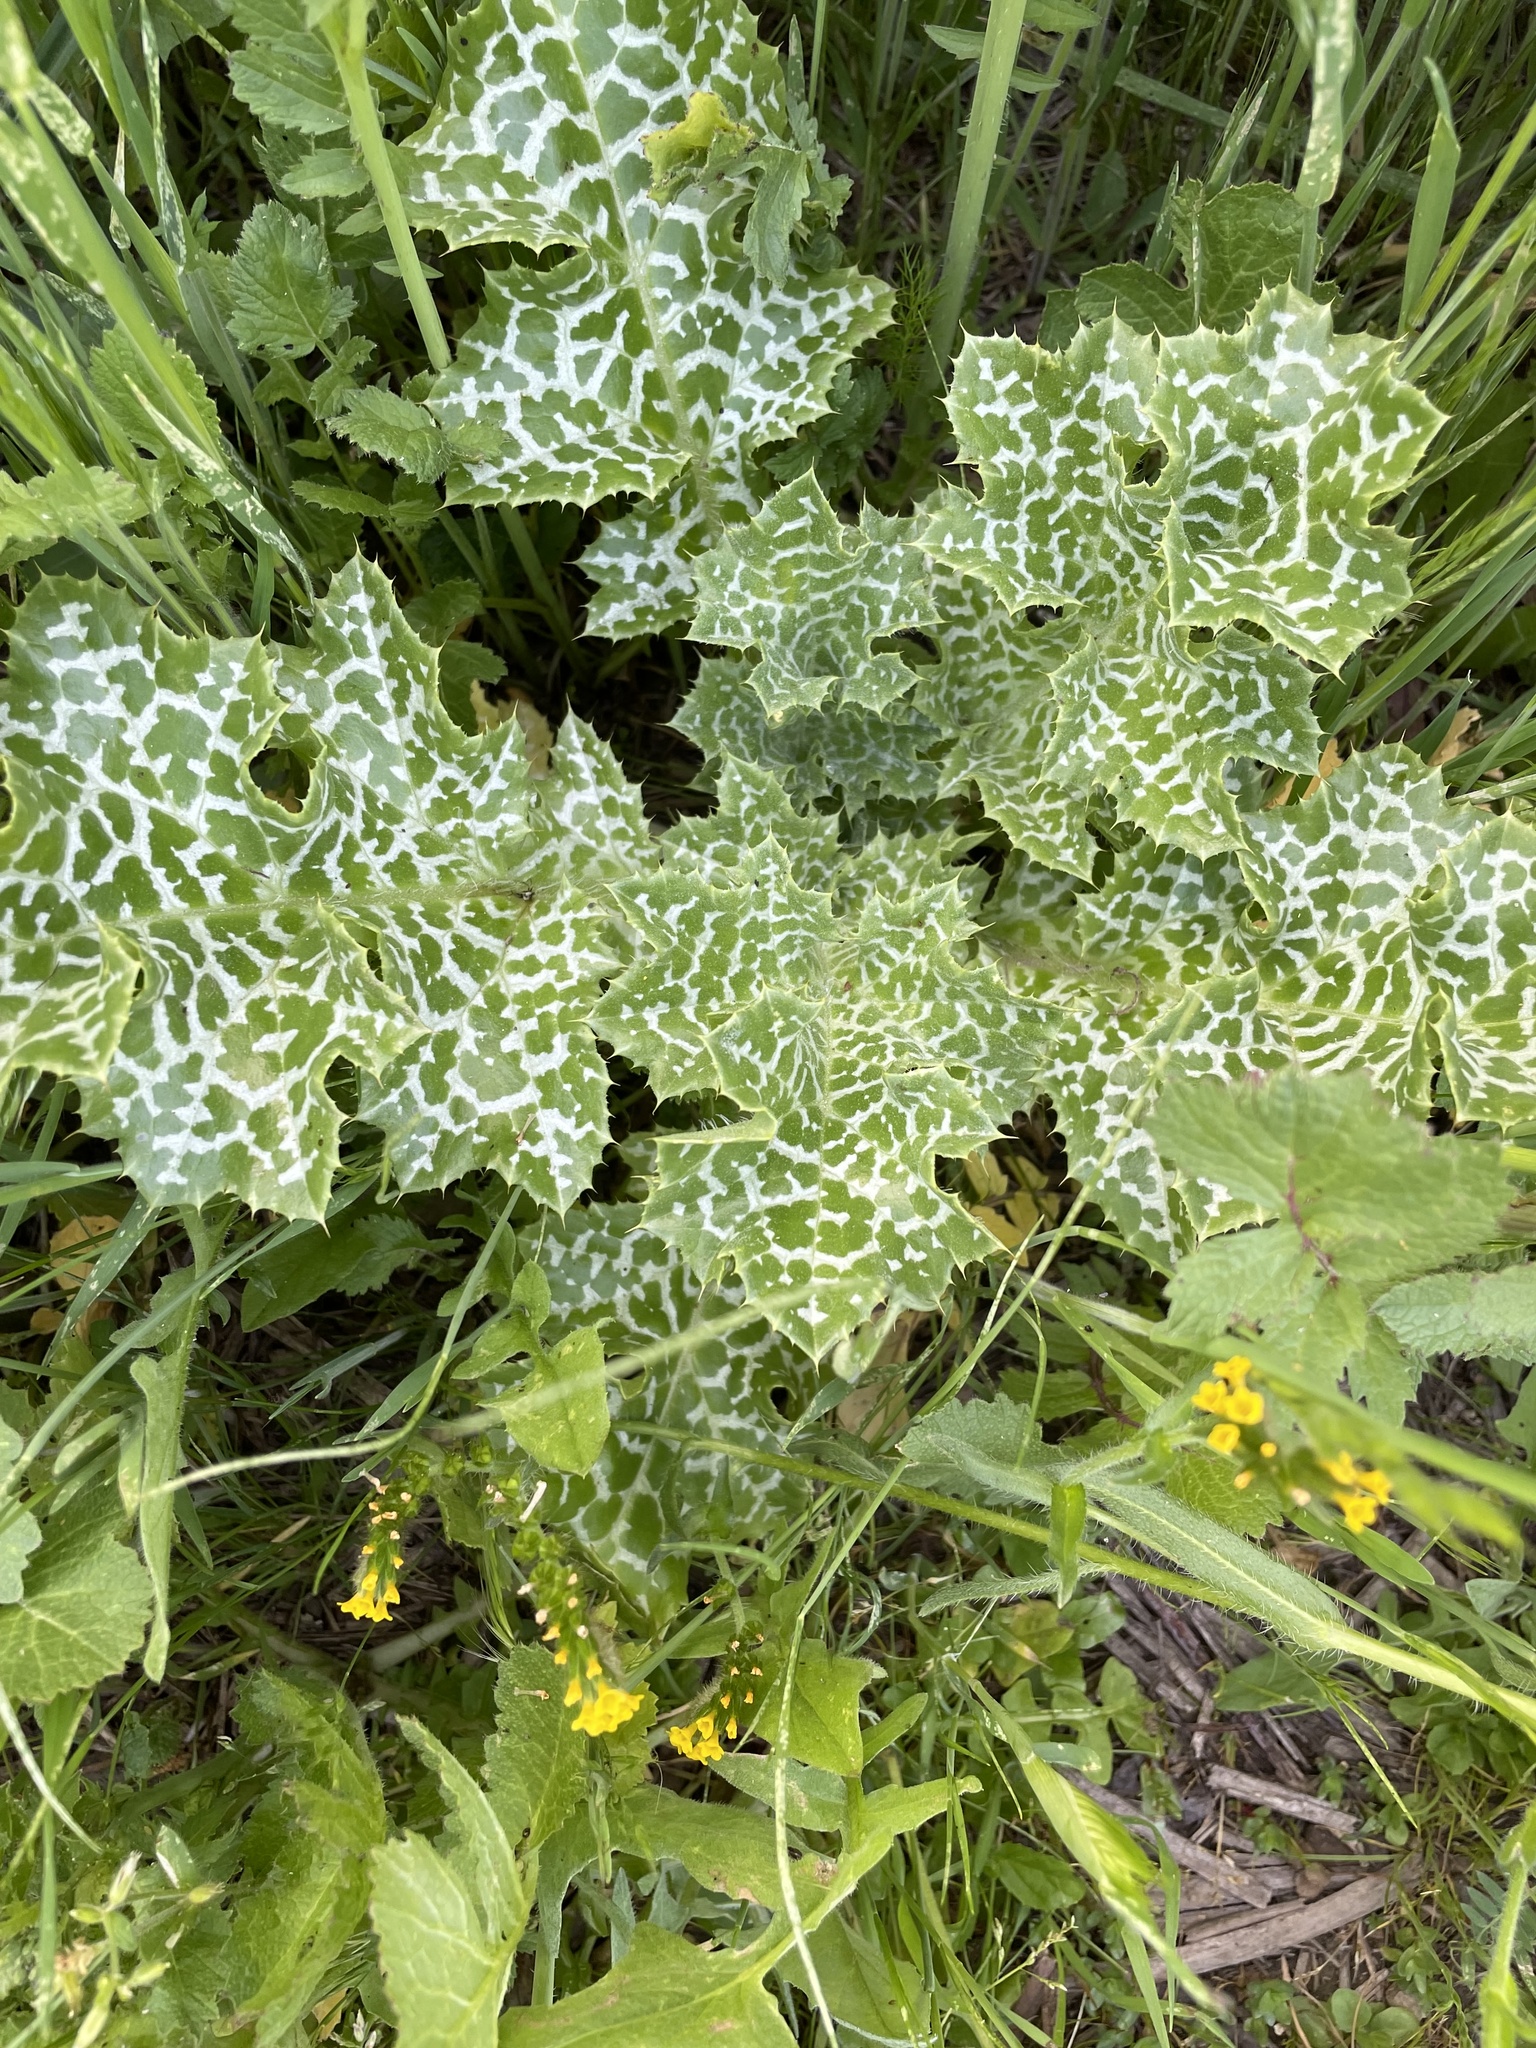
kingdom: Plantae
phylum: Tracheophyta
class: Magnoliopsida
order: Asterales
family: Asteraceae
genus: Silybum
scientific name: Silybum marianum
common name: Milk thistle
